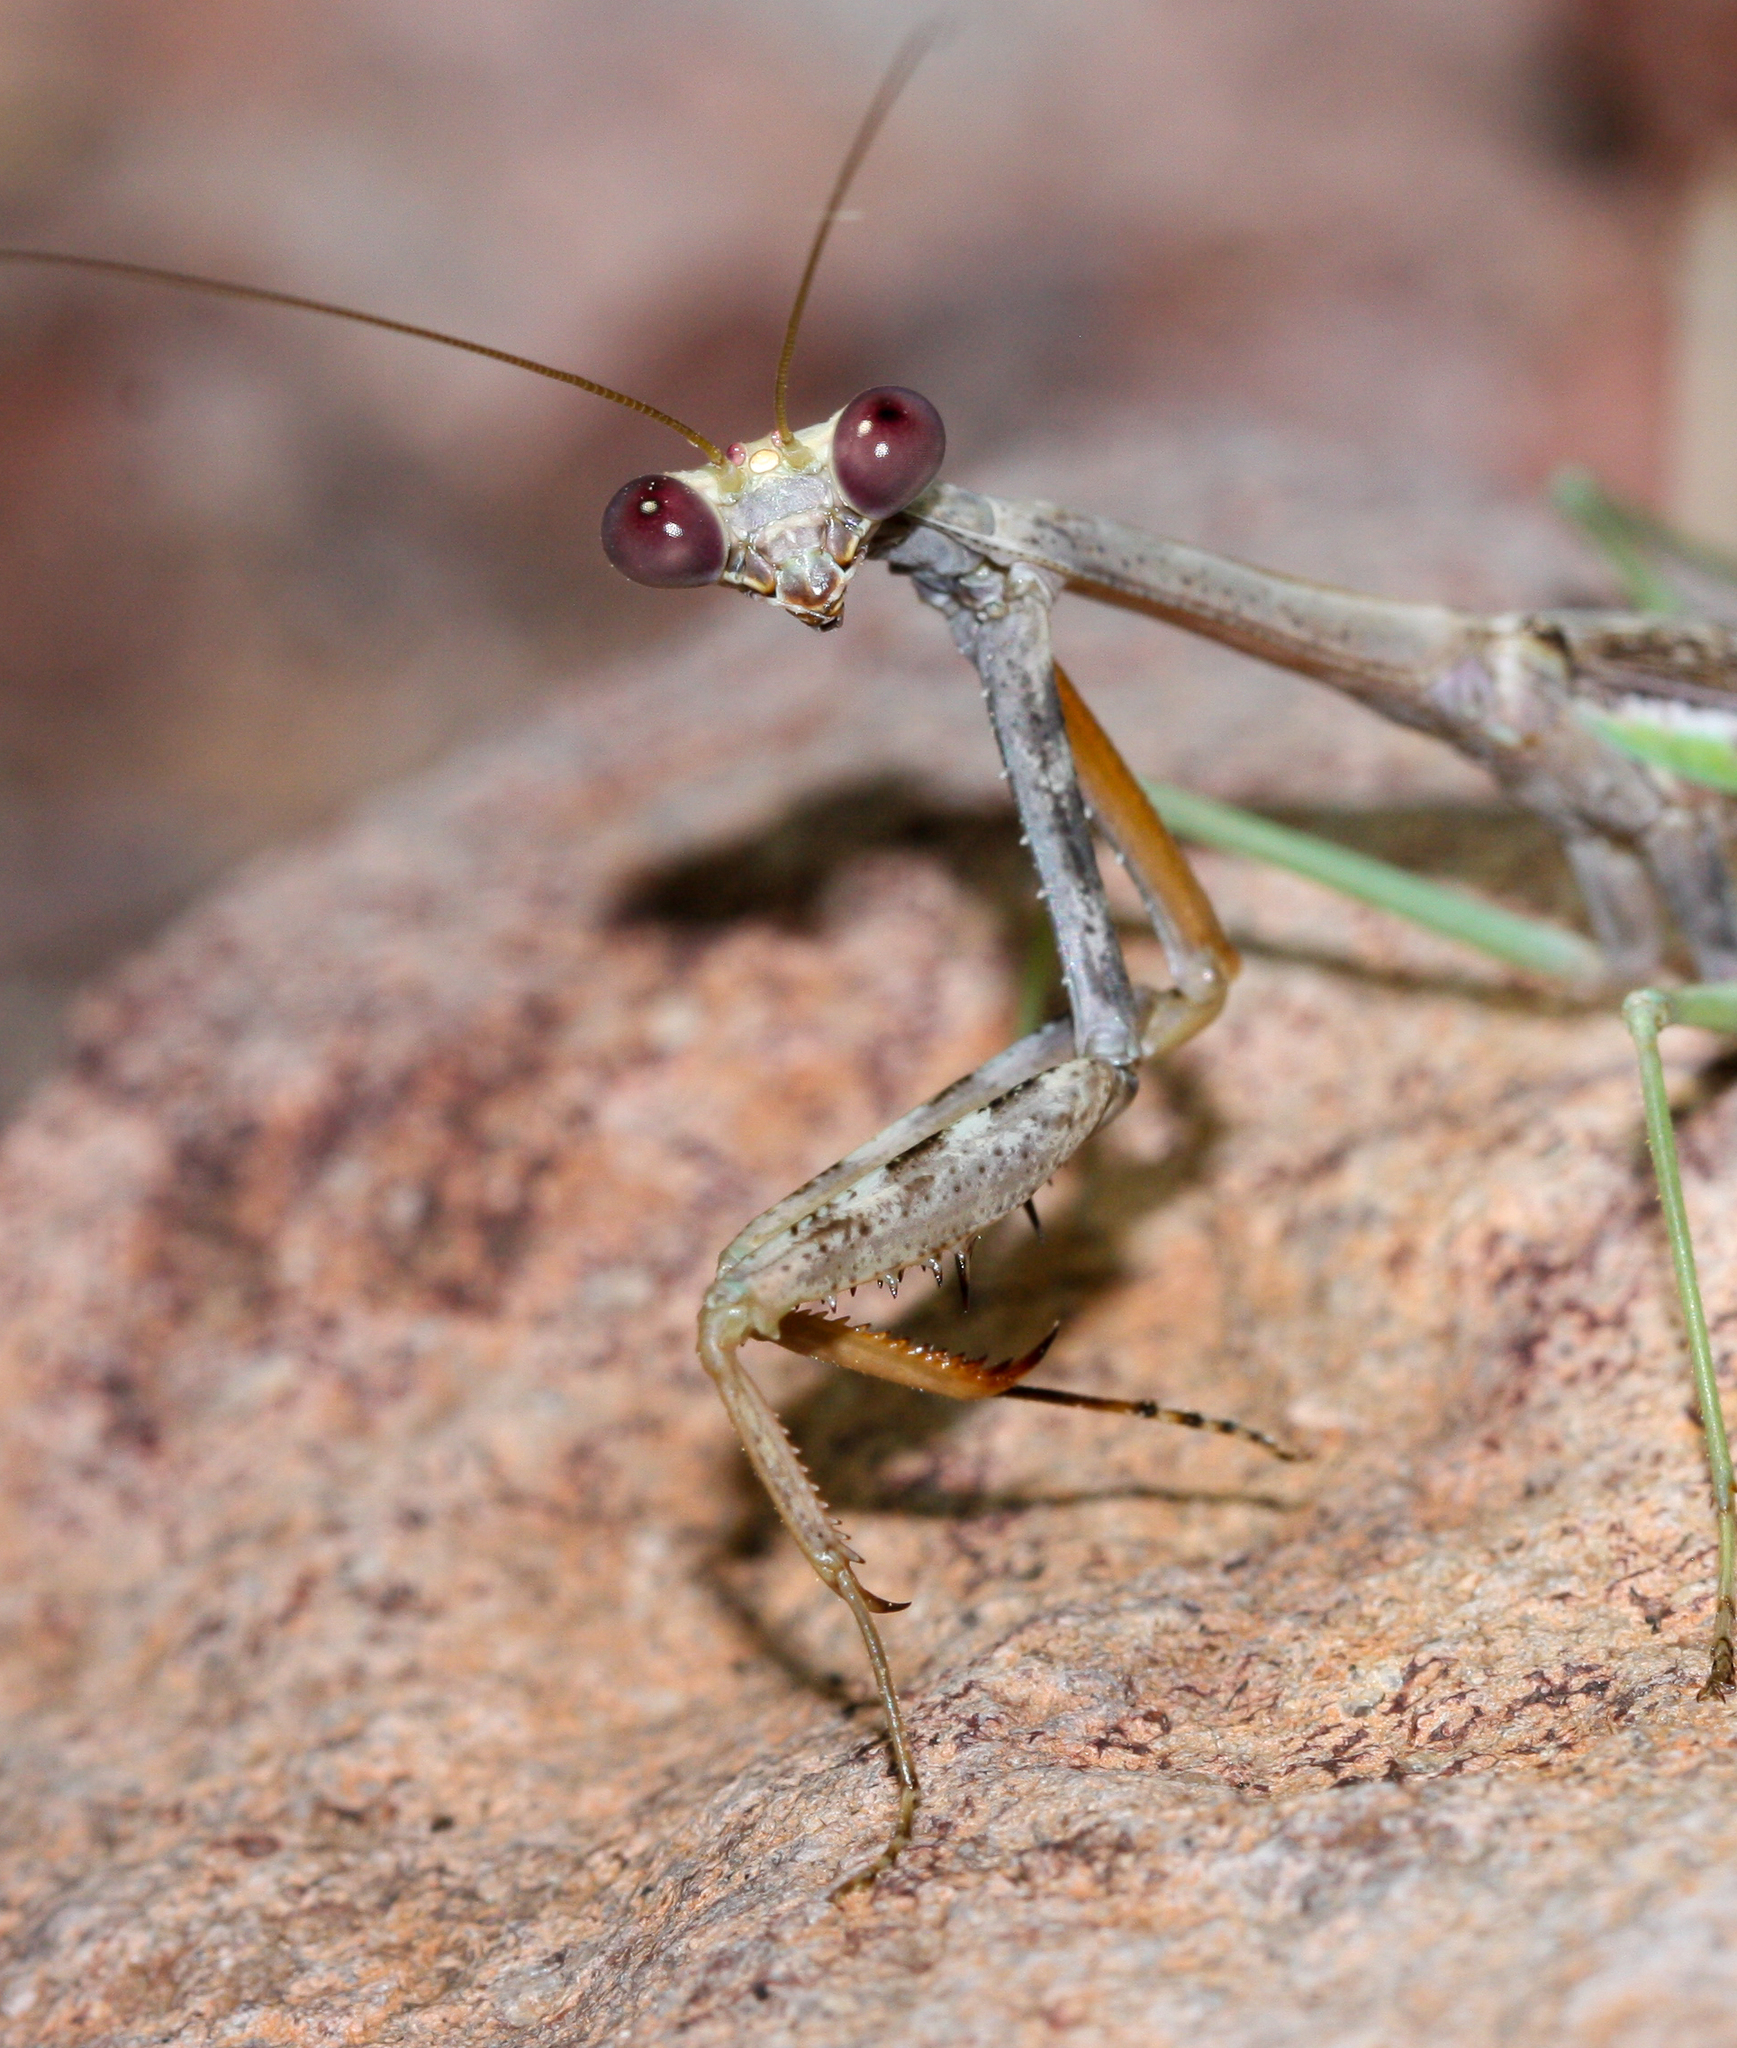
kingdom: Animalia
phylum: Arthropoda
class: Insecta
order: Mantodea
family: Mantidae
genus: Stagmomantis
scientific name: Stagmomantis californica
